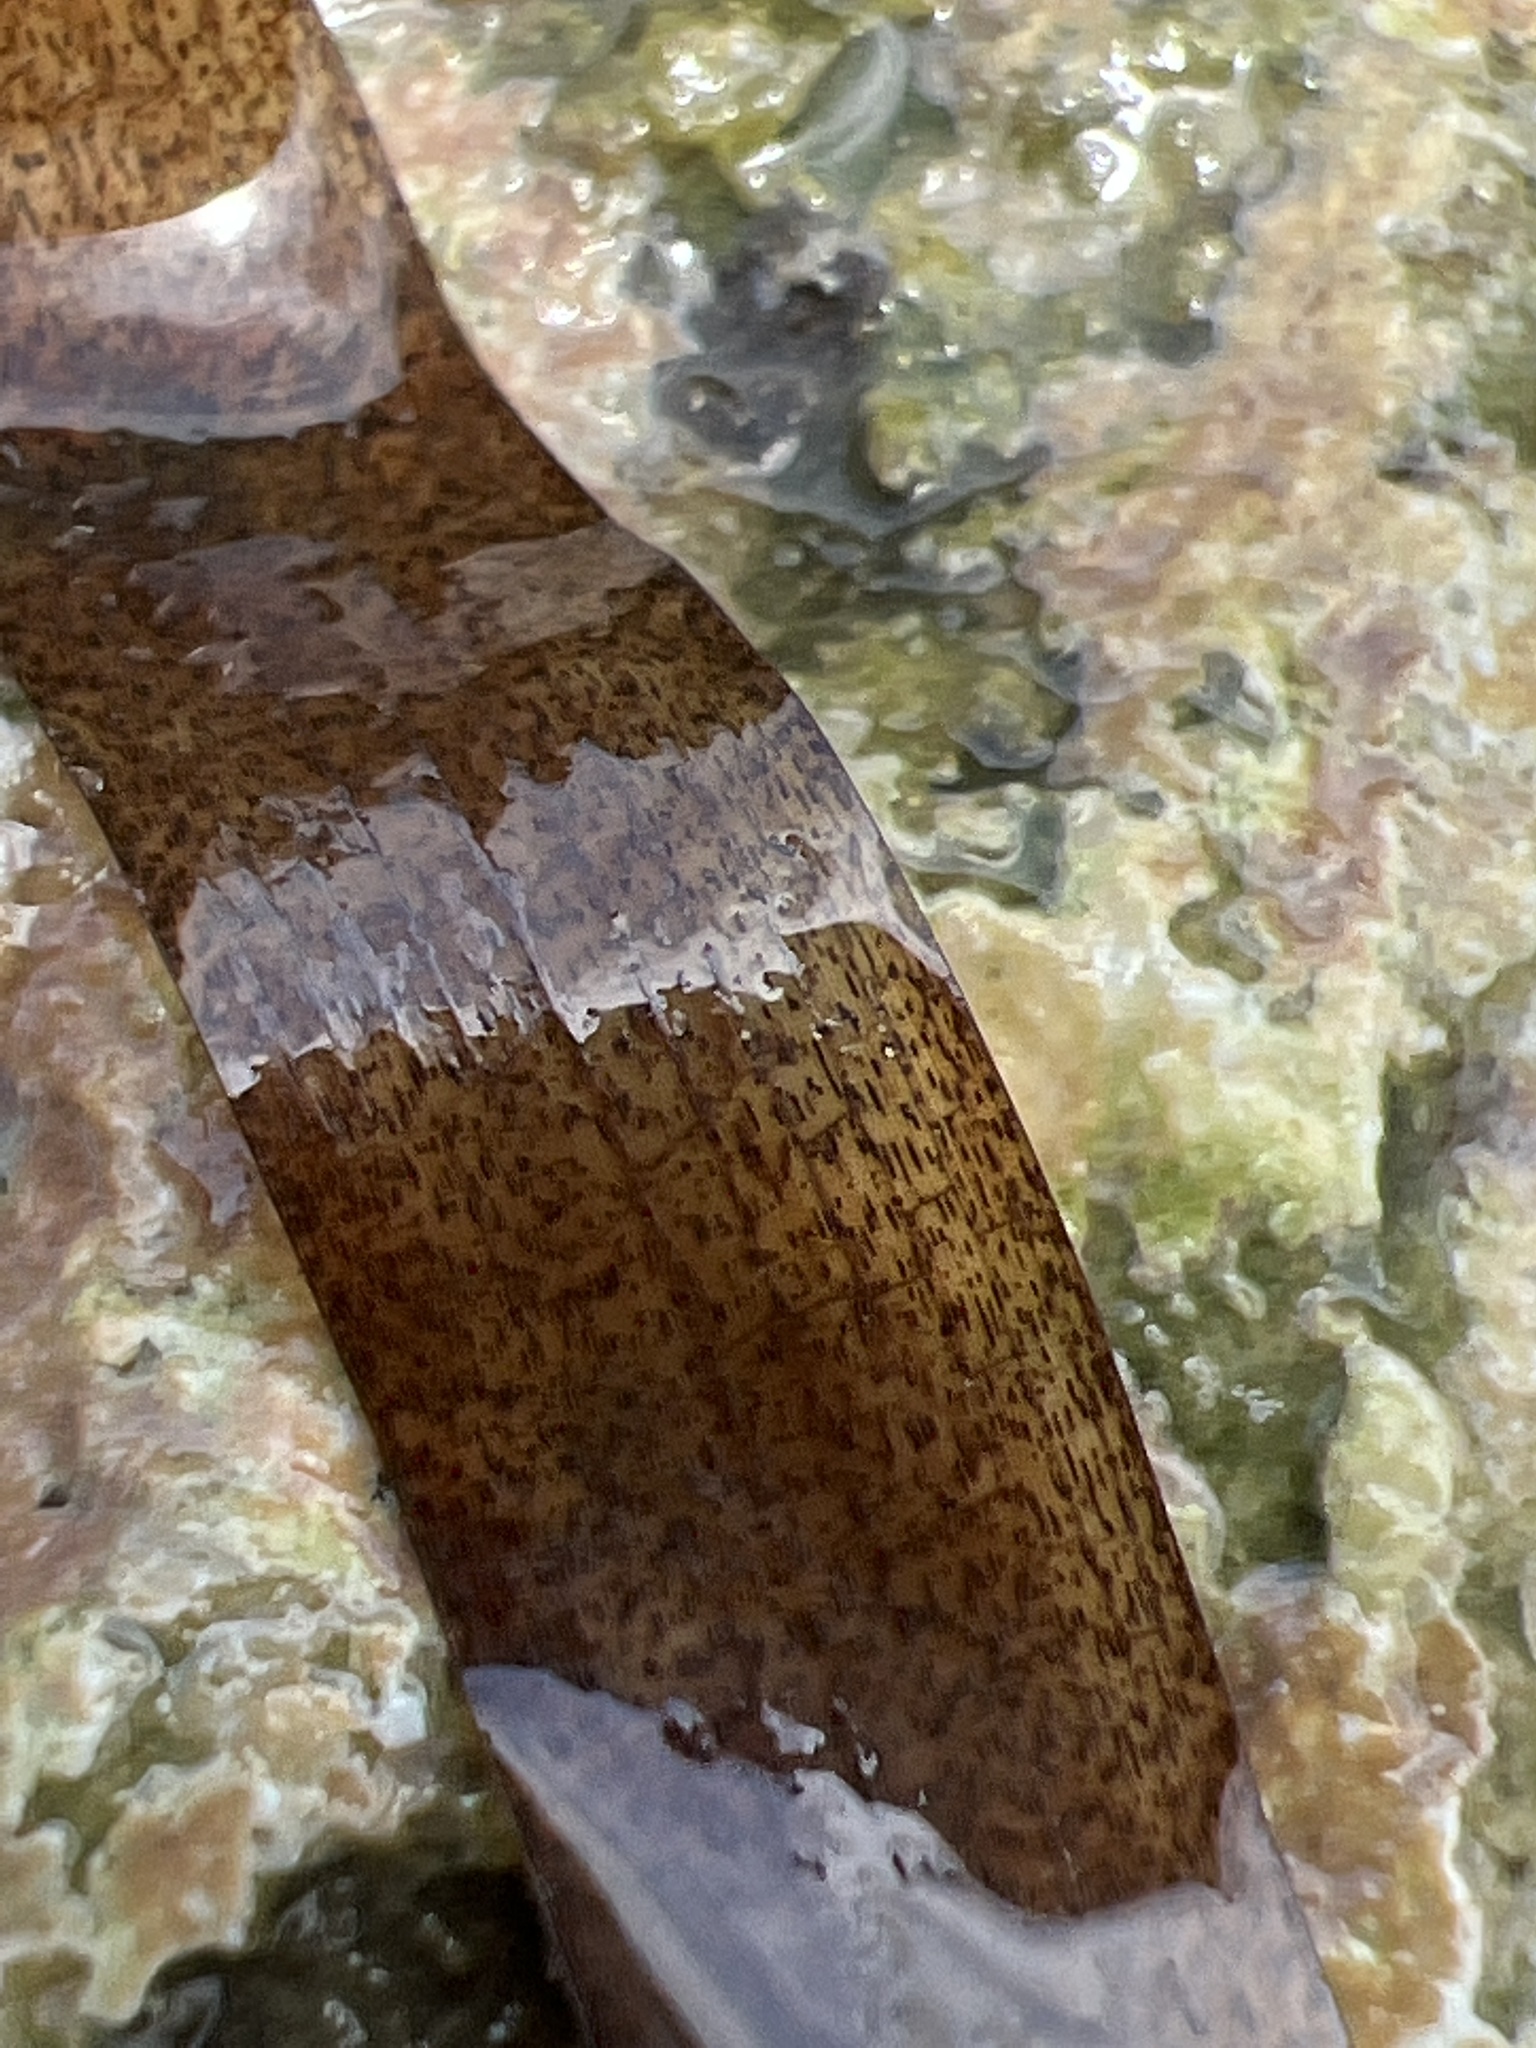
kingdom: Plantae
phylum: Tracheophyta
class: Liliopsida
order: Alismatales
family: Hydrocharitaceae
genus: Thalassia
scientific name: Thalassia testudinum
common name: Species code: tt
